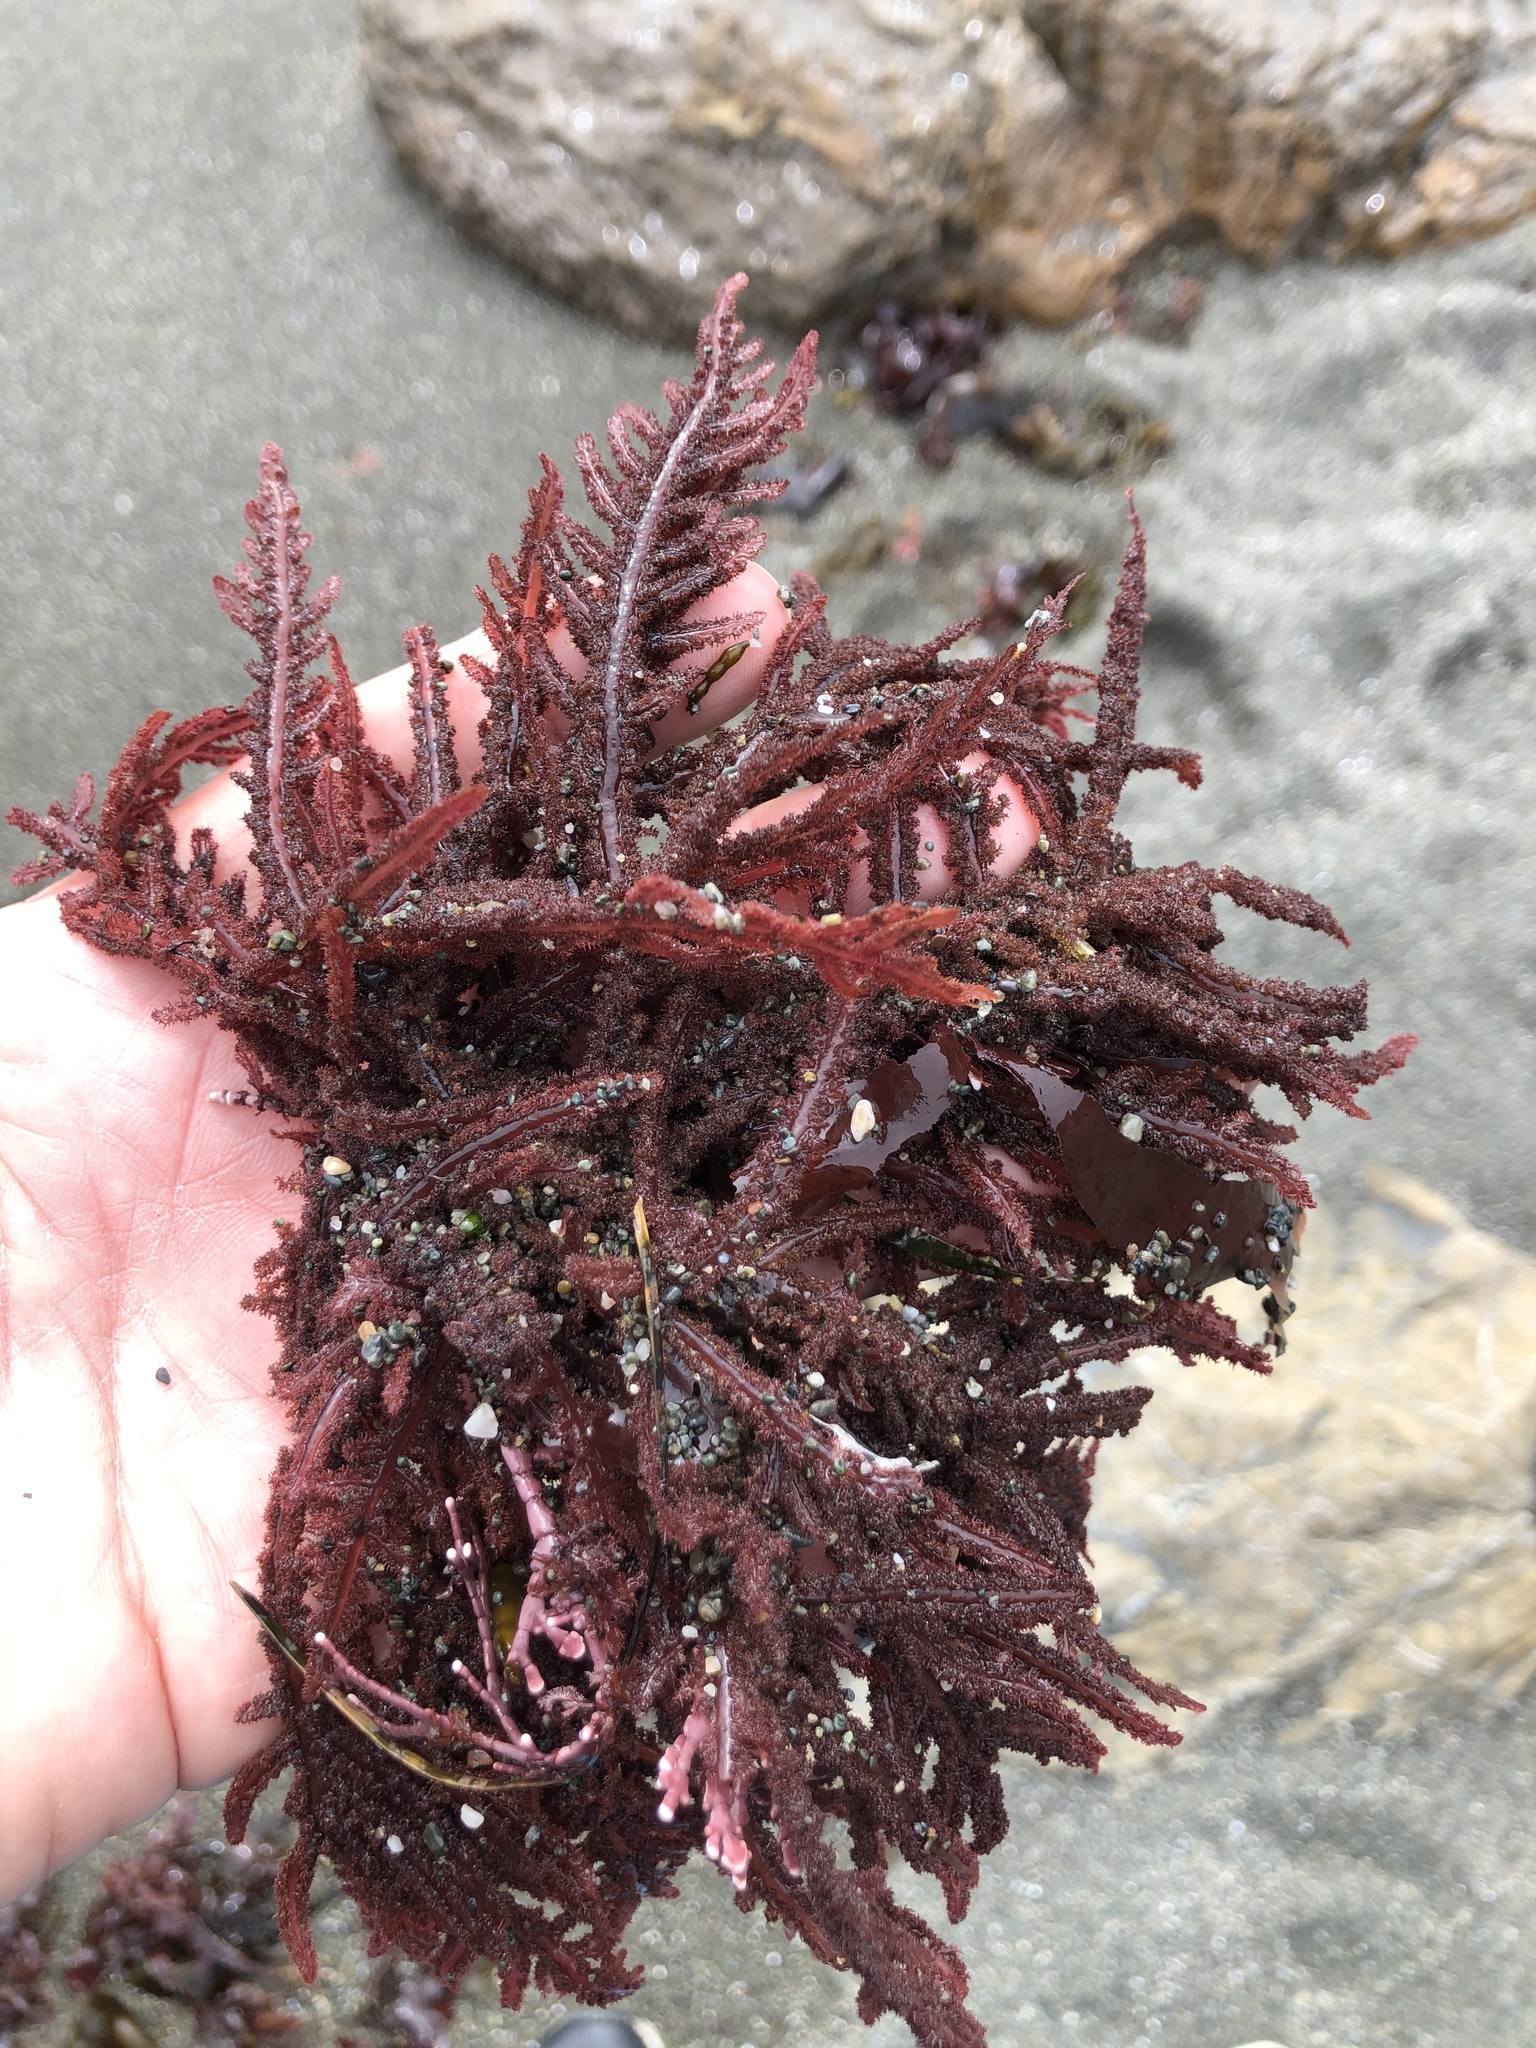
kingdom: Plantae
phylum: Rhodophyta
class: Florideophyceae
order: Ceramiales
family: Wrangeliaceae
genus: Neoptilota
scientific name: Neoptilota densa
